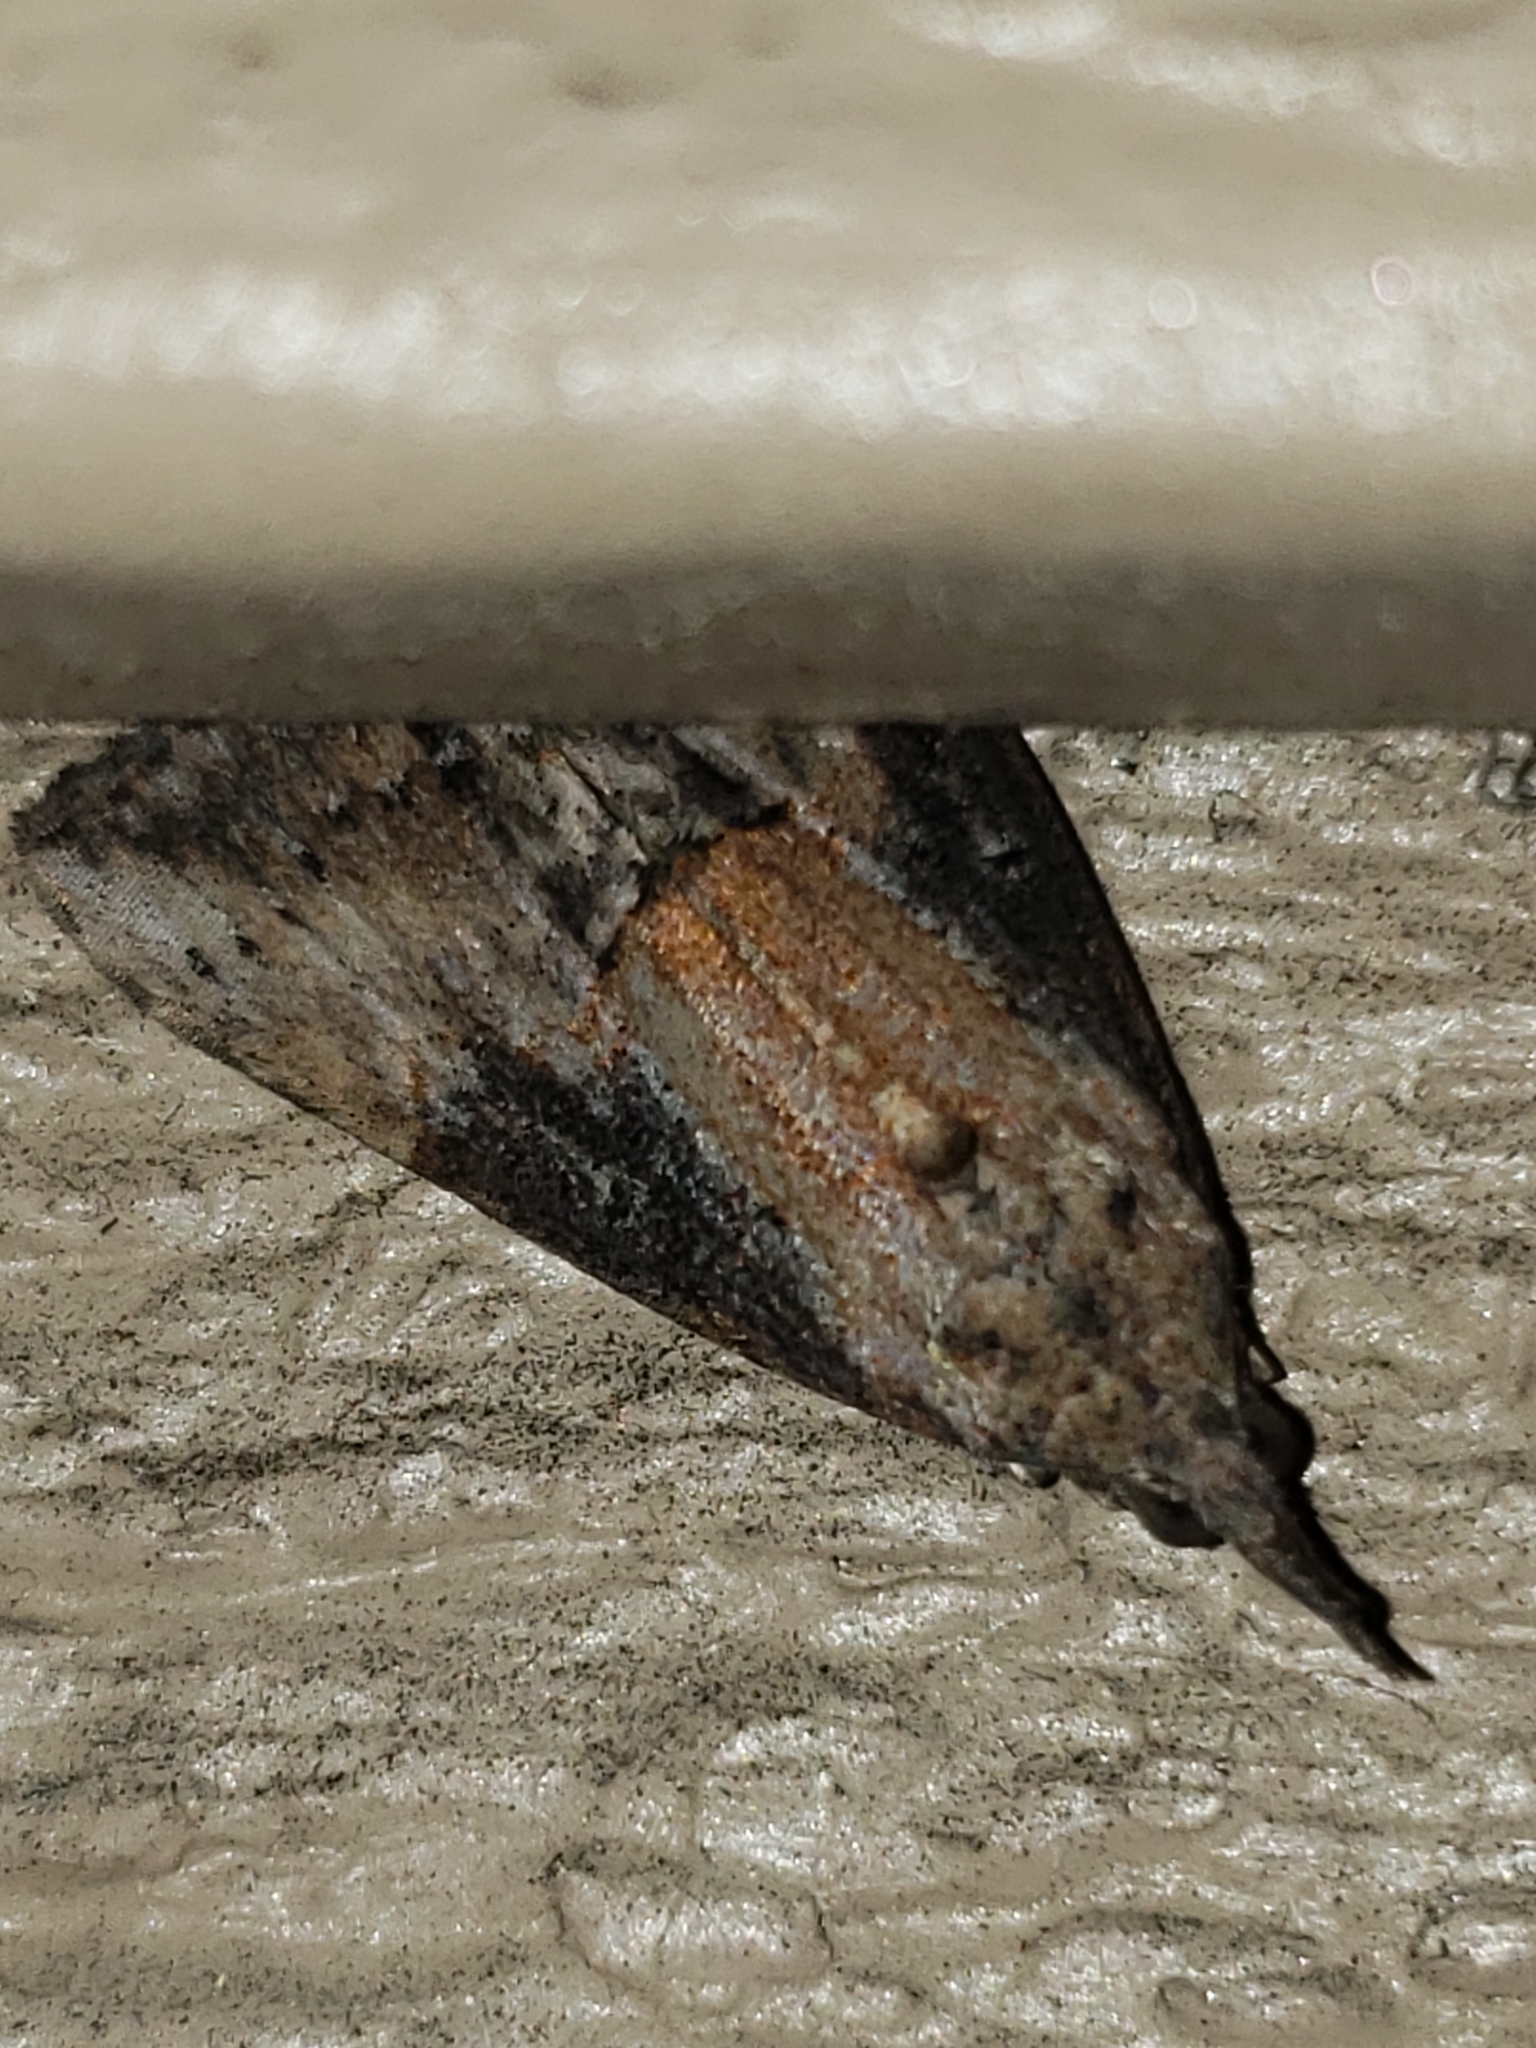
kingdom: Animalia
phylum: Arthropoda
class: Insecta
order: Lepidoptera
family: Erebidae
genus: Hypena
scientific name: Hypena scabra
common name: Green cloverworm
